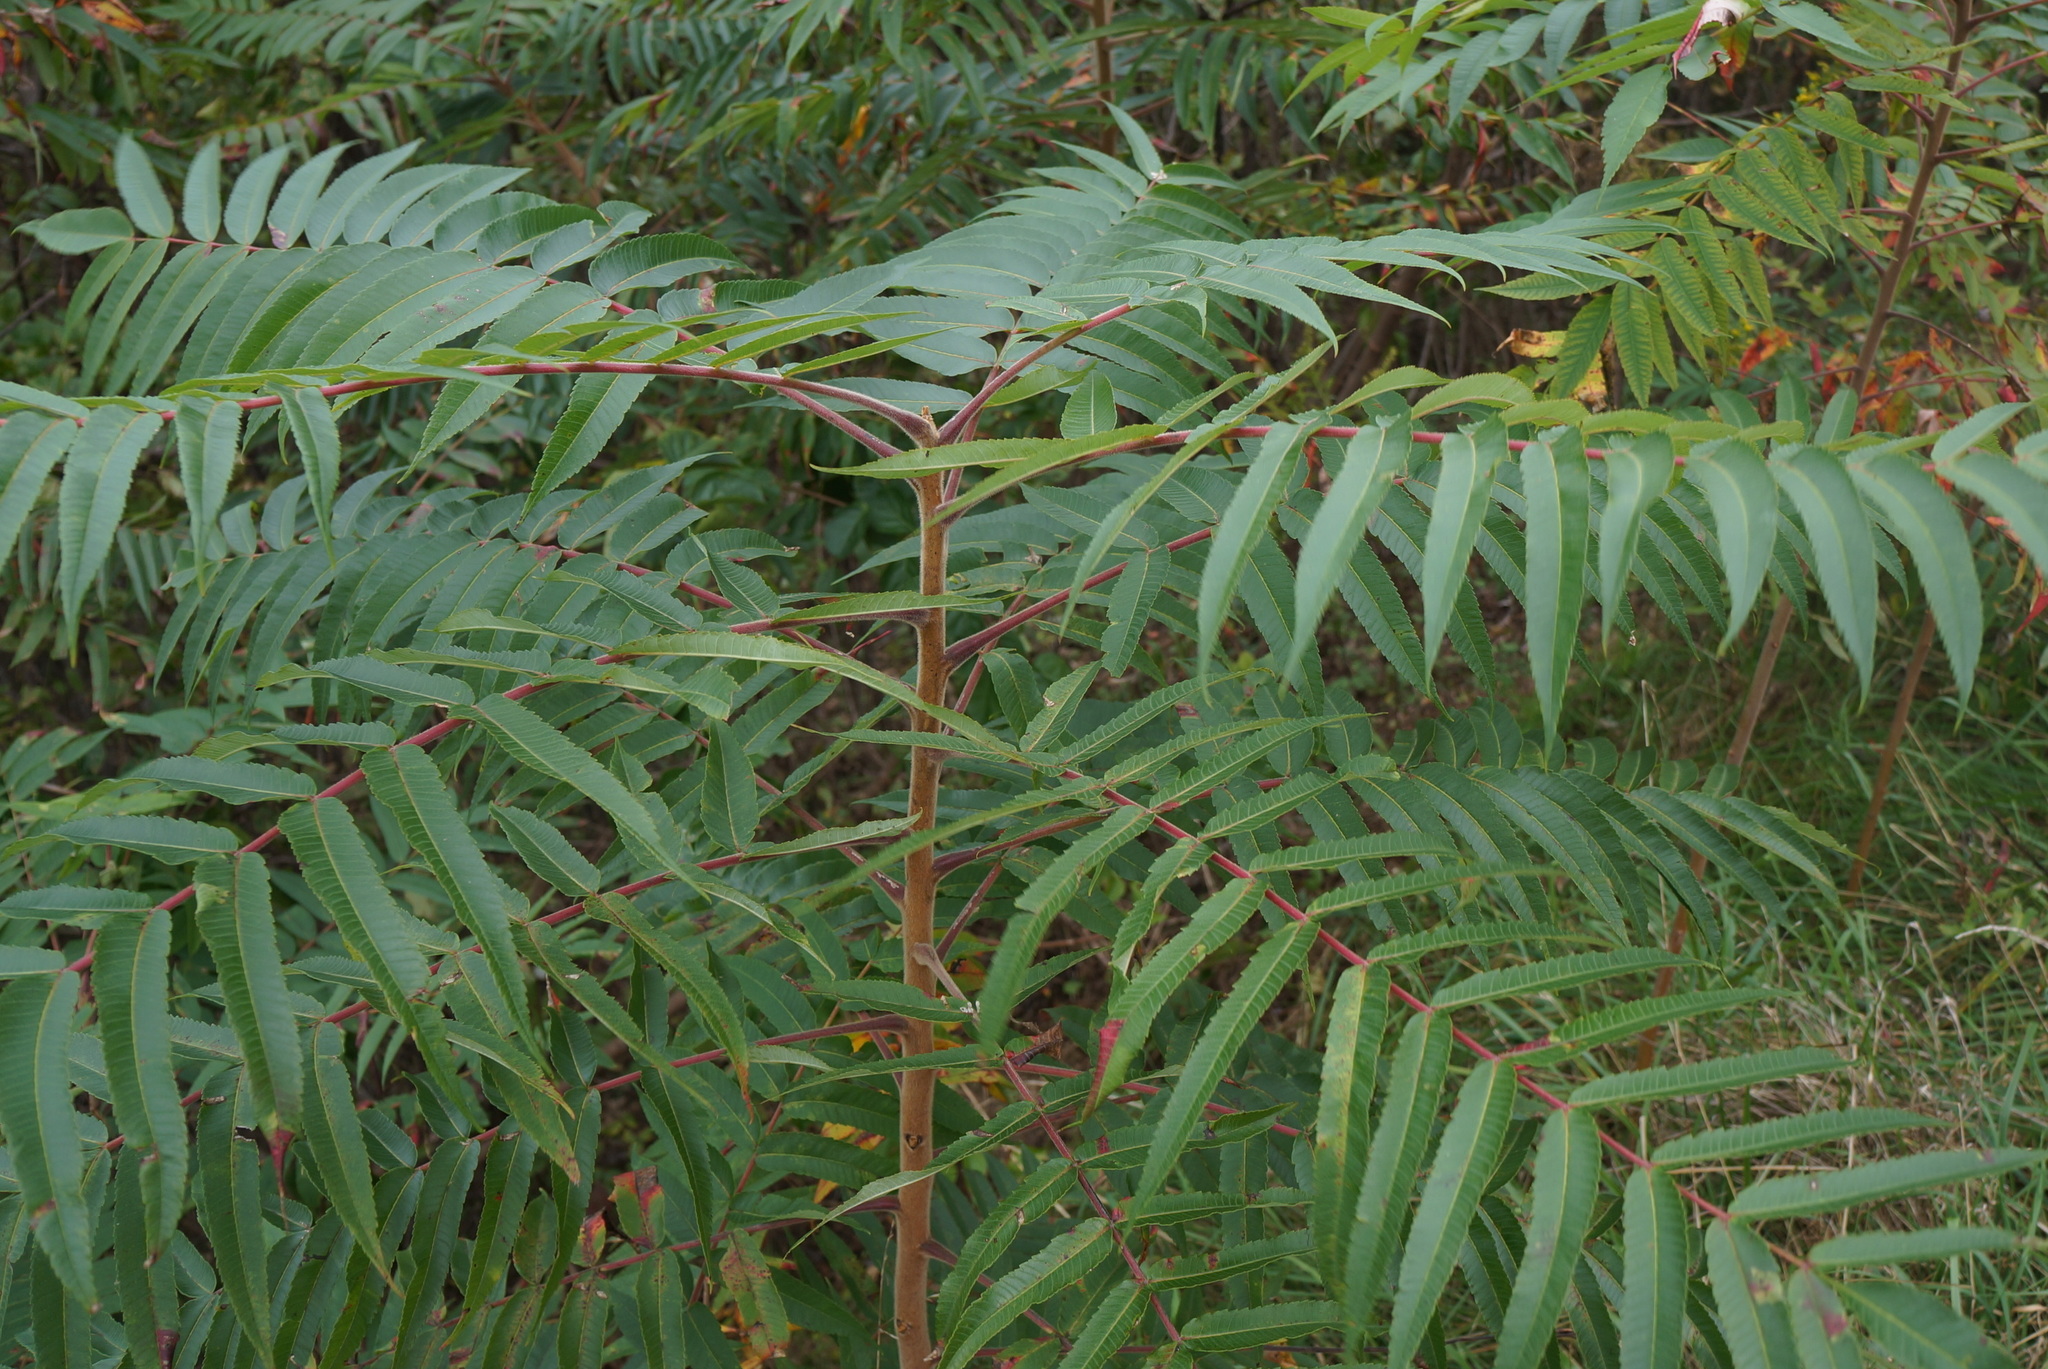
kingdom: Plantae
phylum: Tracheophyta
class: Magnoliopsida
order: Sapindales
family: Anacardiaceae
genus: Rhus
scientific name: Rhus typhina
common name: Staghorn sumac
